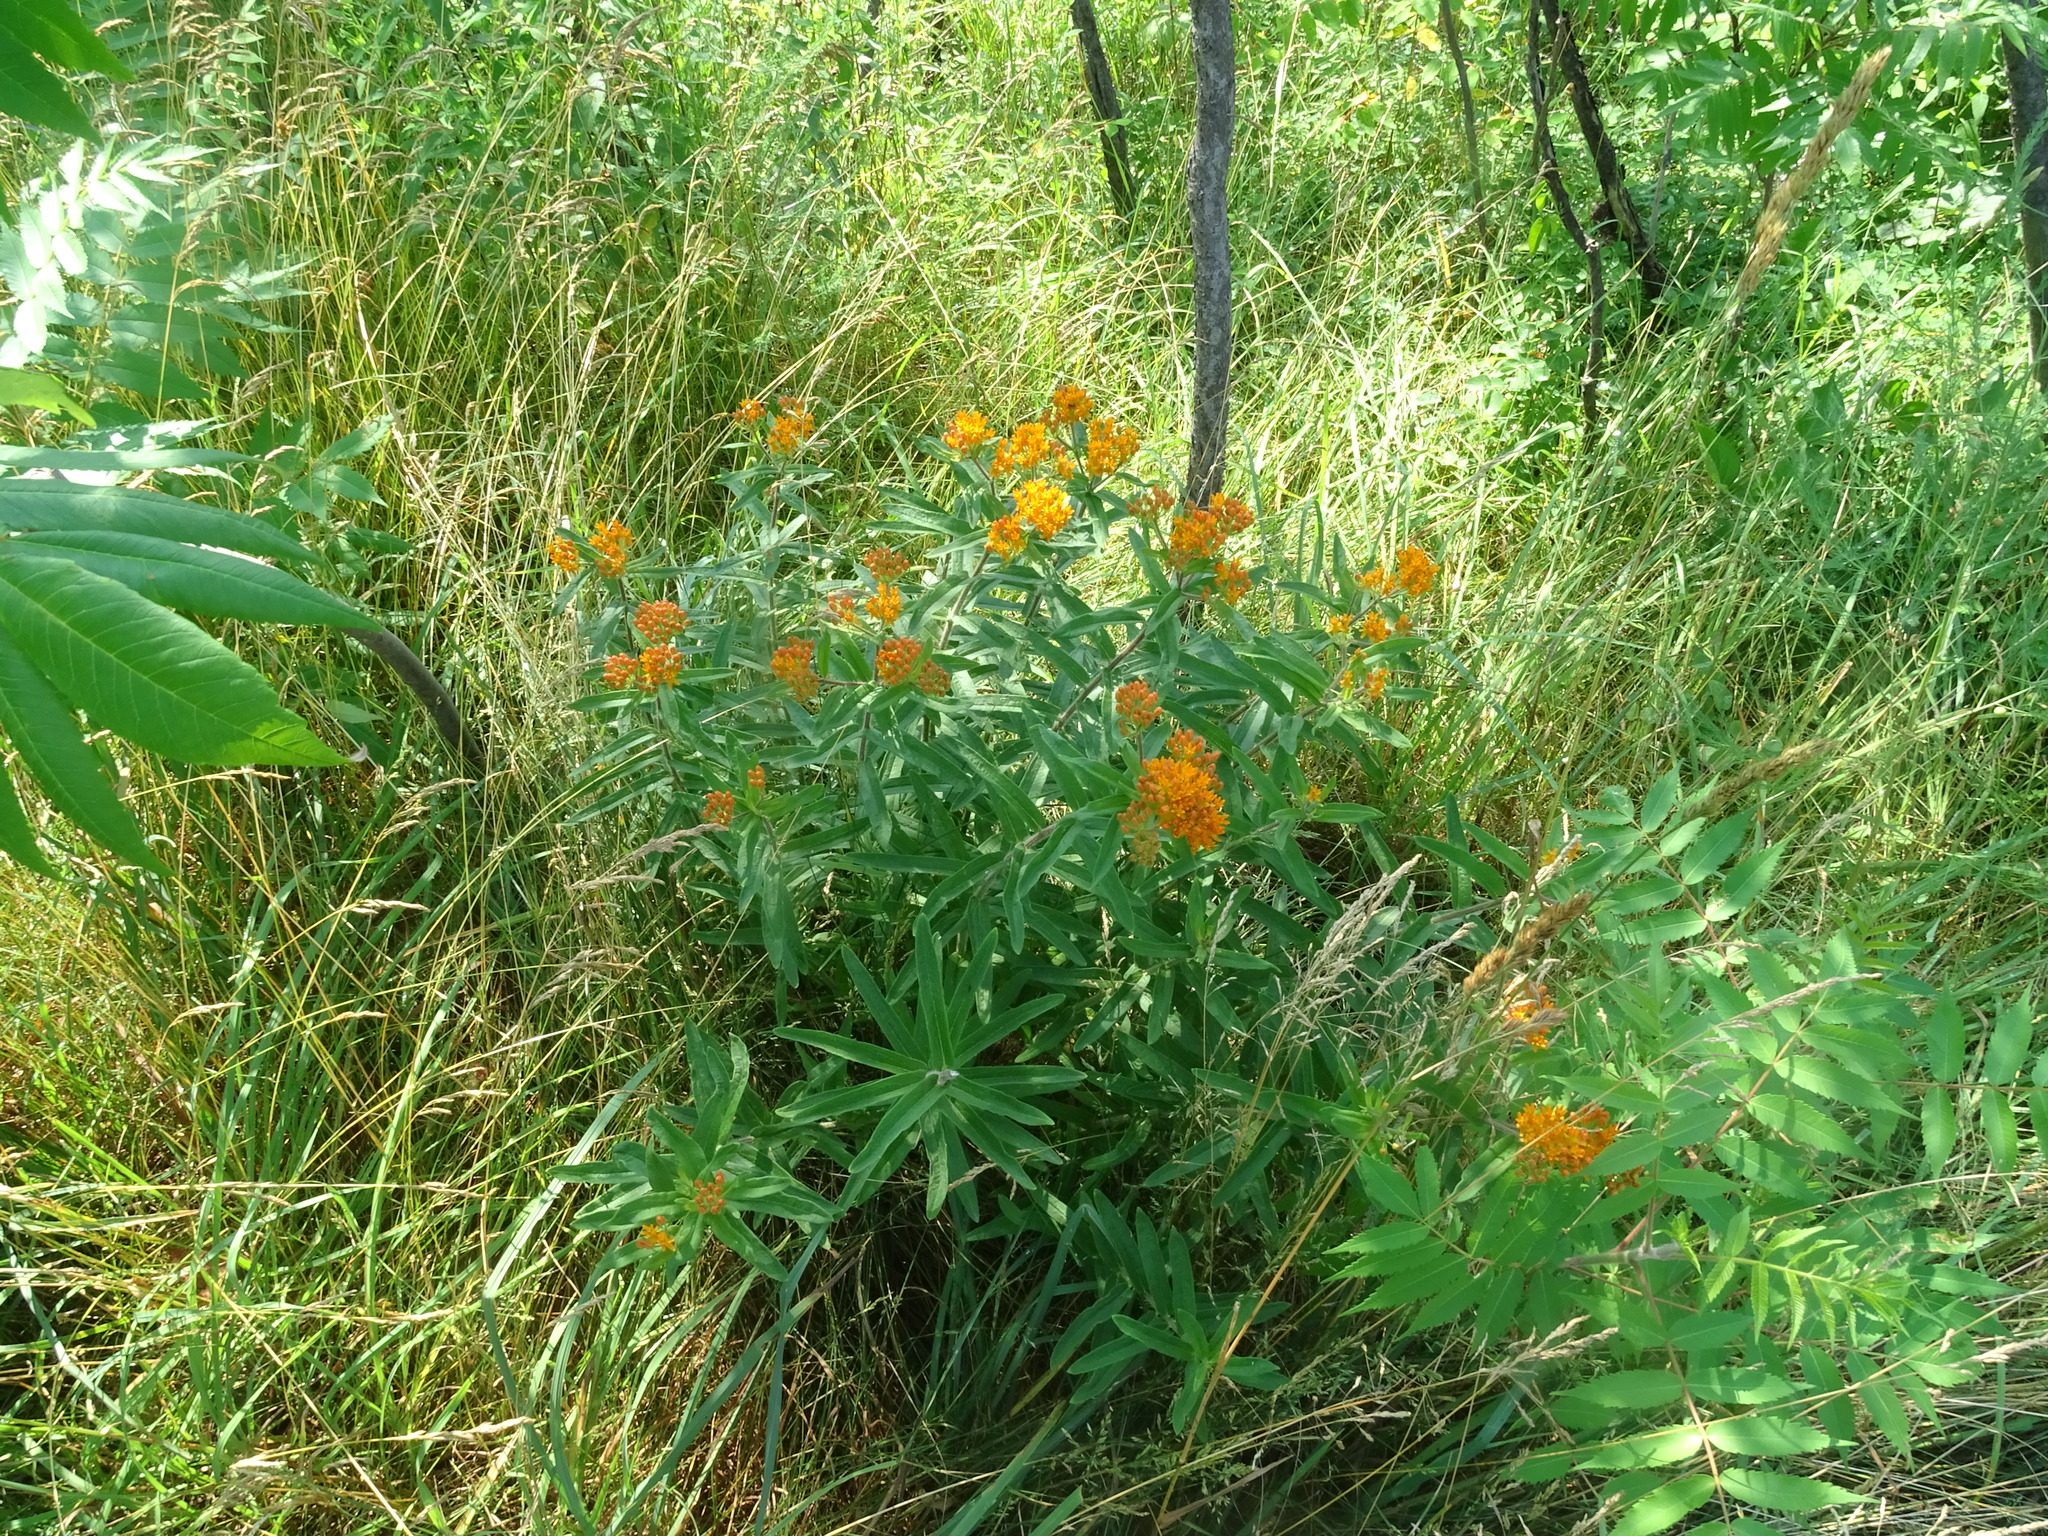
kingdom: Plantae
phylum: Tracheophyta
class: Magnoliopsida
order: Gentianales
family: Apocynaceae
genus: Asclepias
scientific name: Asclepias tuberosa
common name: Butterfly milkweed
